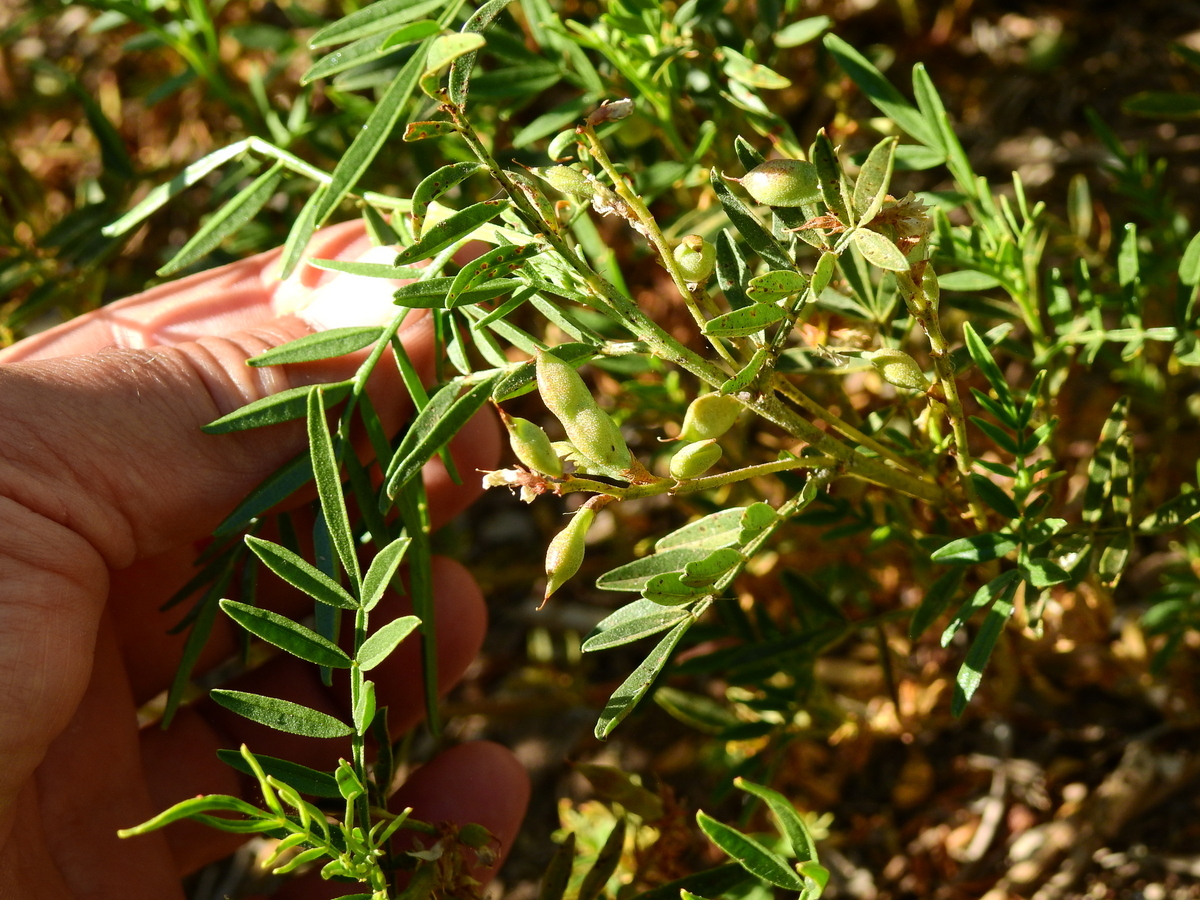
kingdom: Plantae
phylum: Tracheophyta
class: Magnoliopsida
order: Fabales
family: Fabaceae
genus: Glycyrrhiza
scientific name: Glycyrrhiza astragalina
